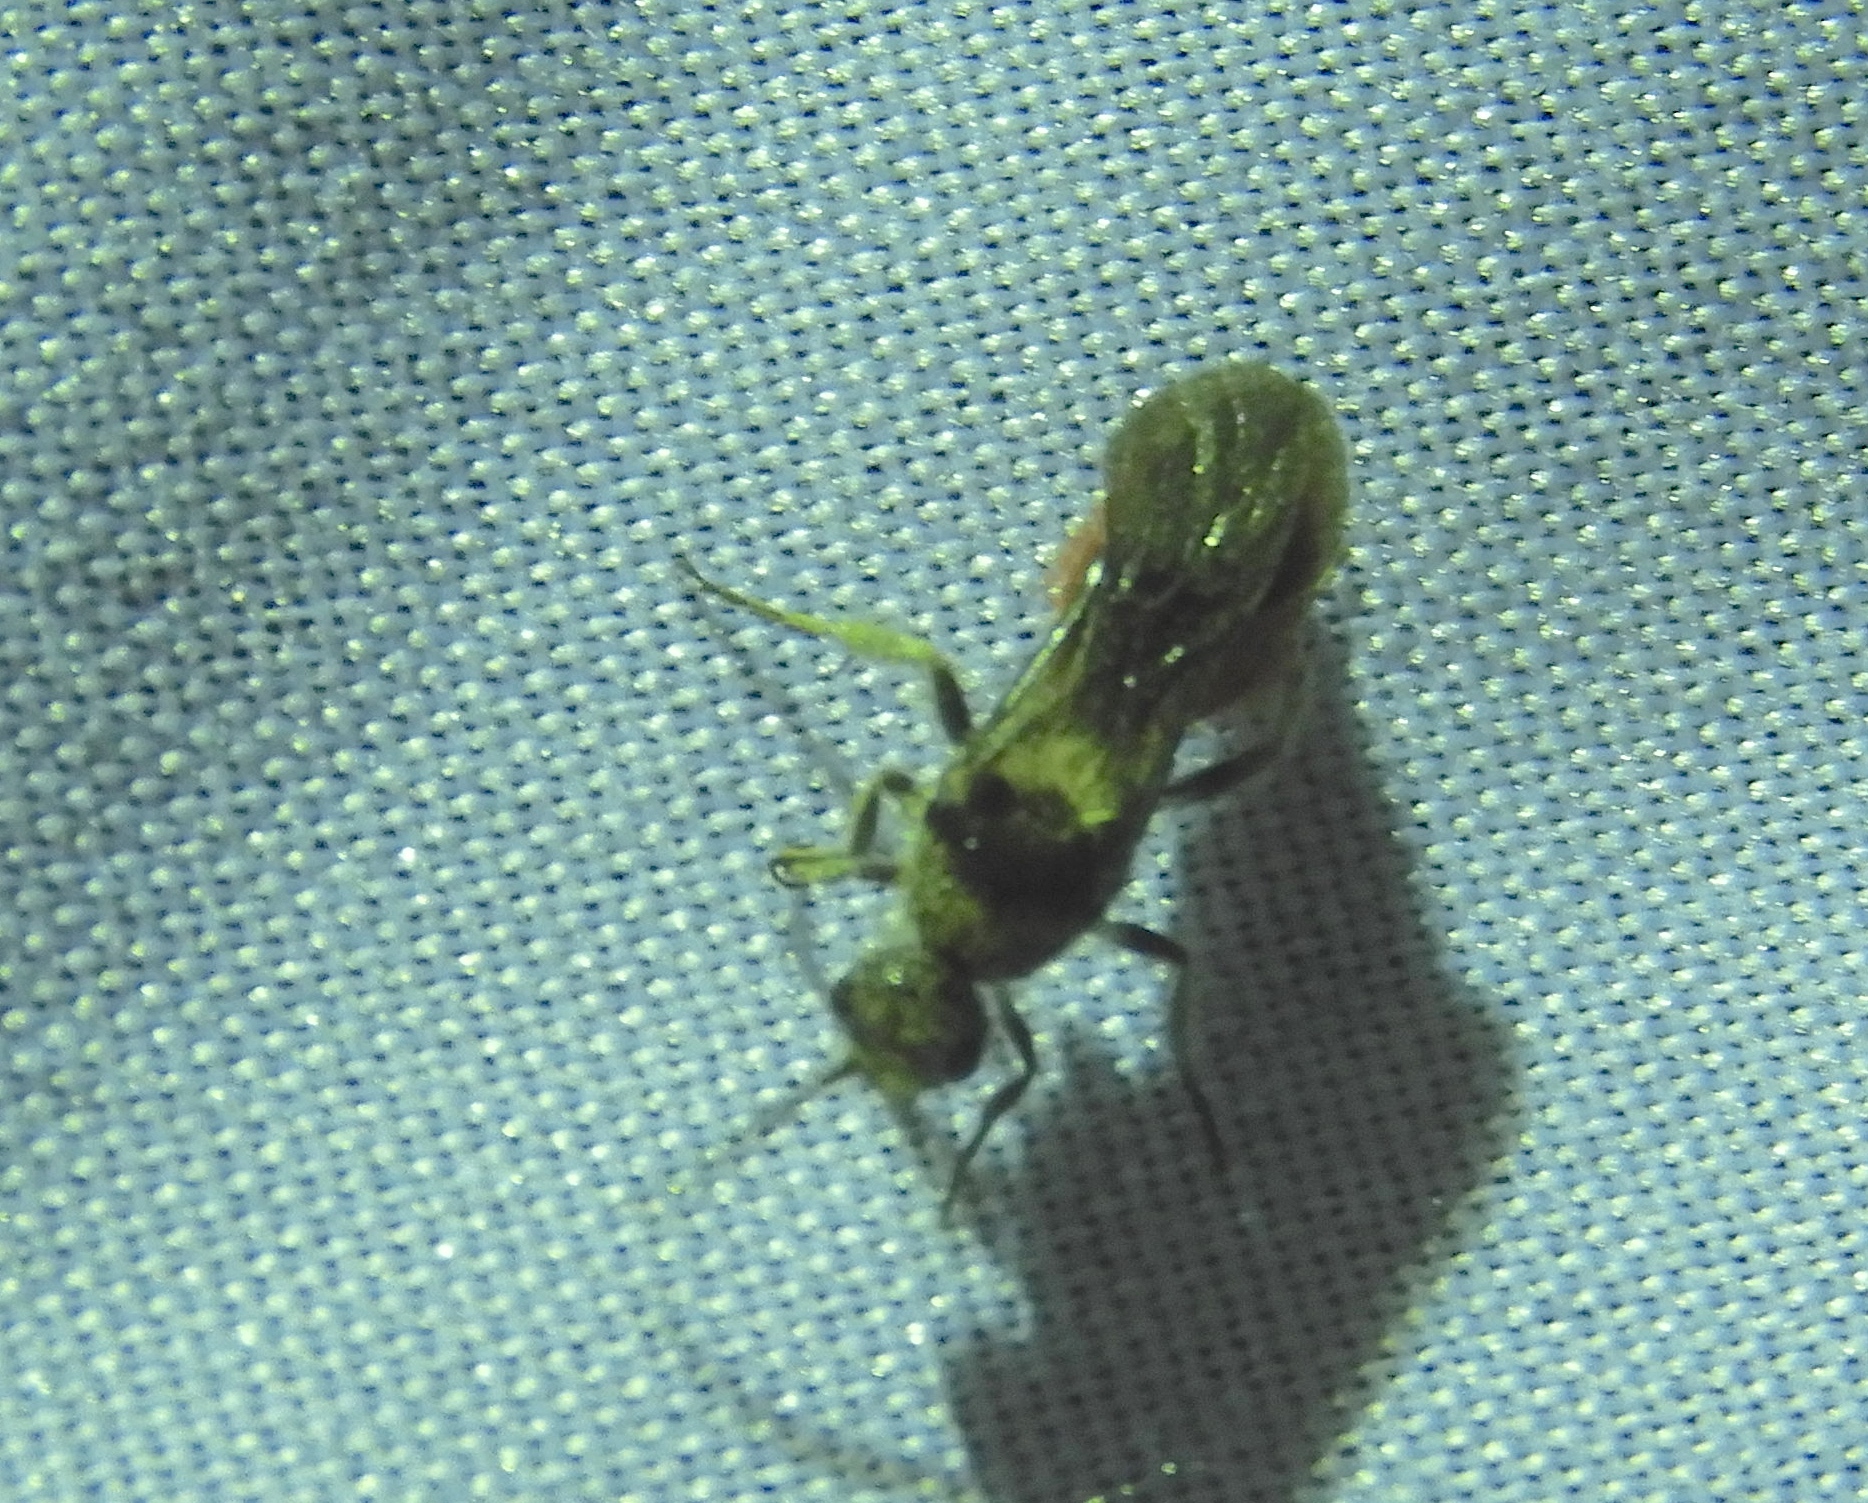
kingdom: Animalia
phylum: Arthropoda
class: Insecta
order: Hymenoptera
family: Mutillidae
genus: Dasymutilla
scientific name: Dasymutilla
